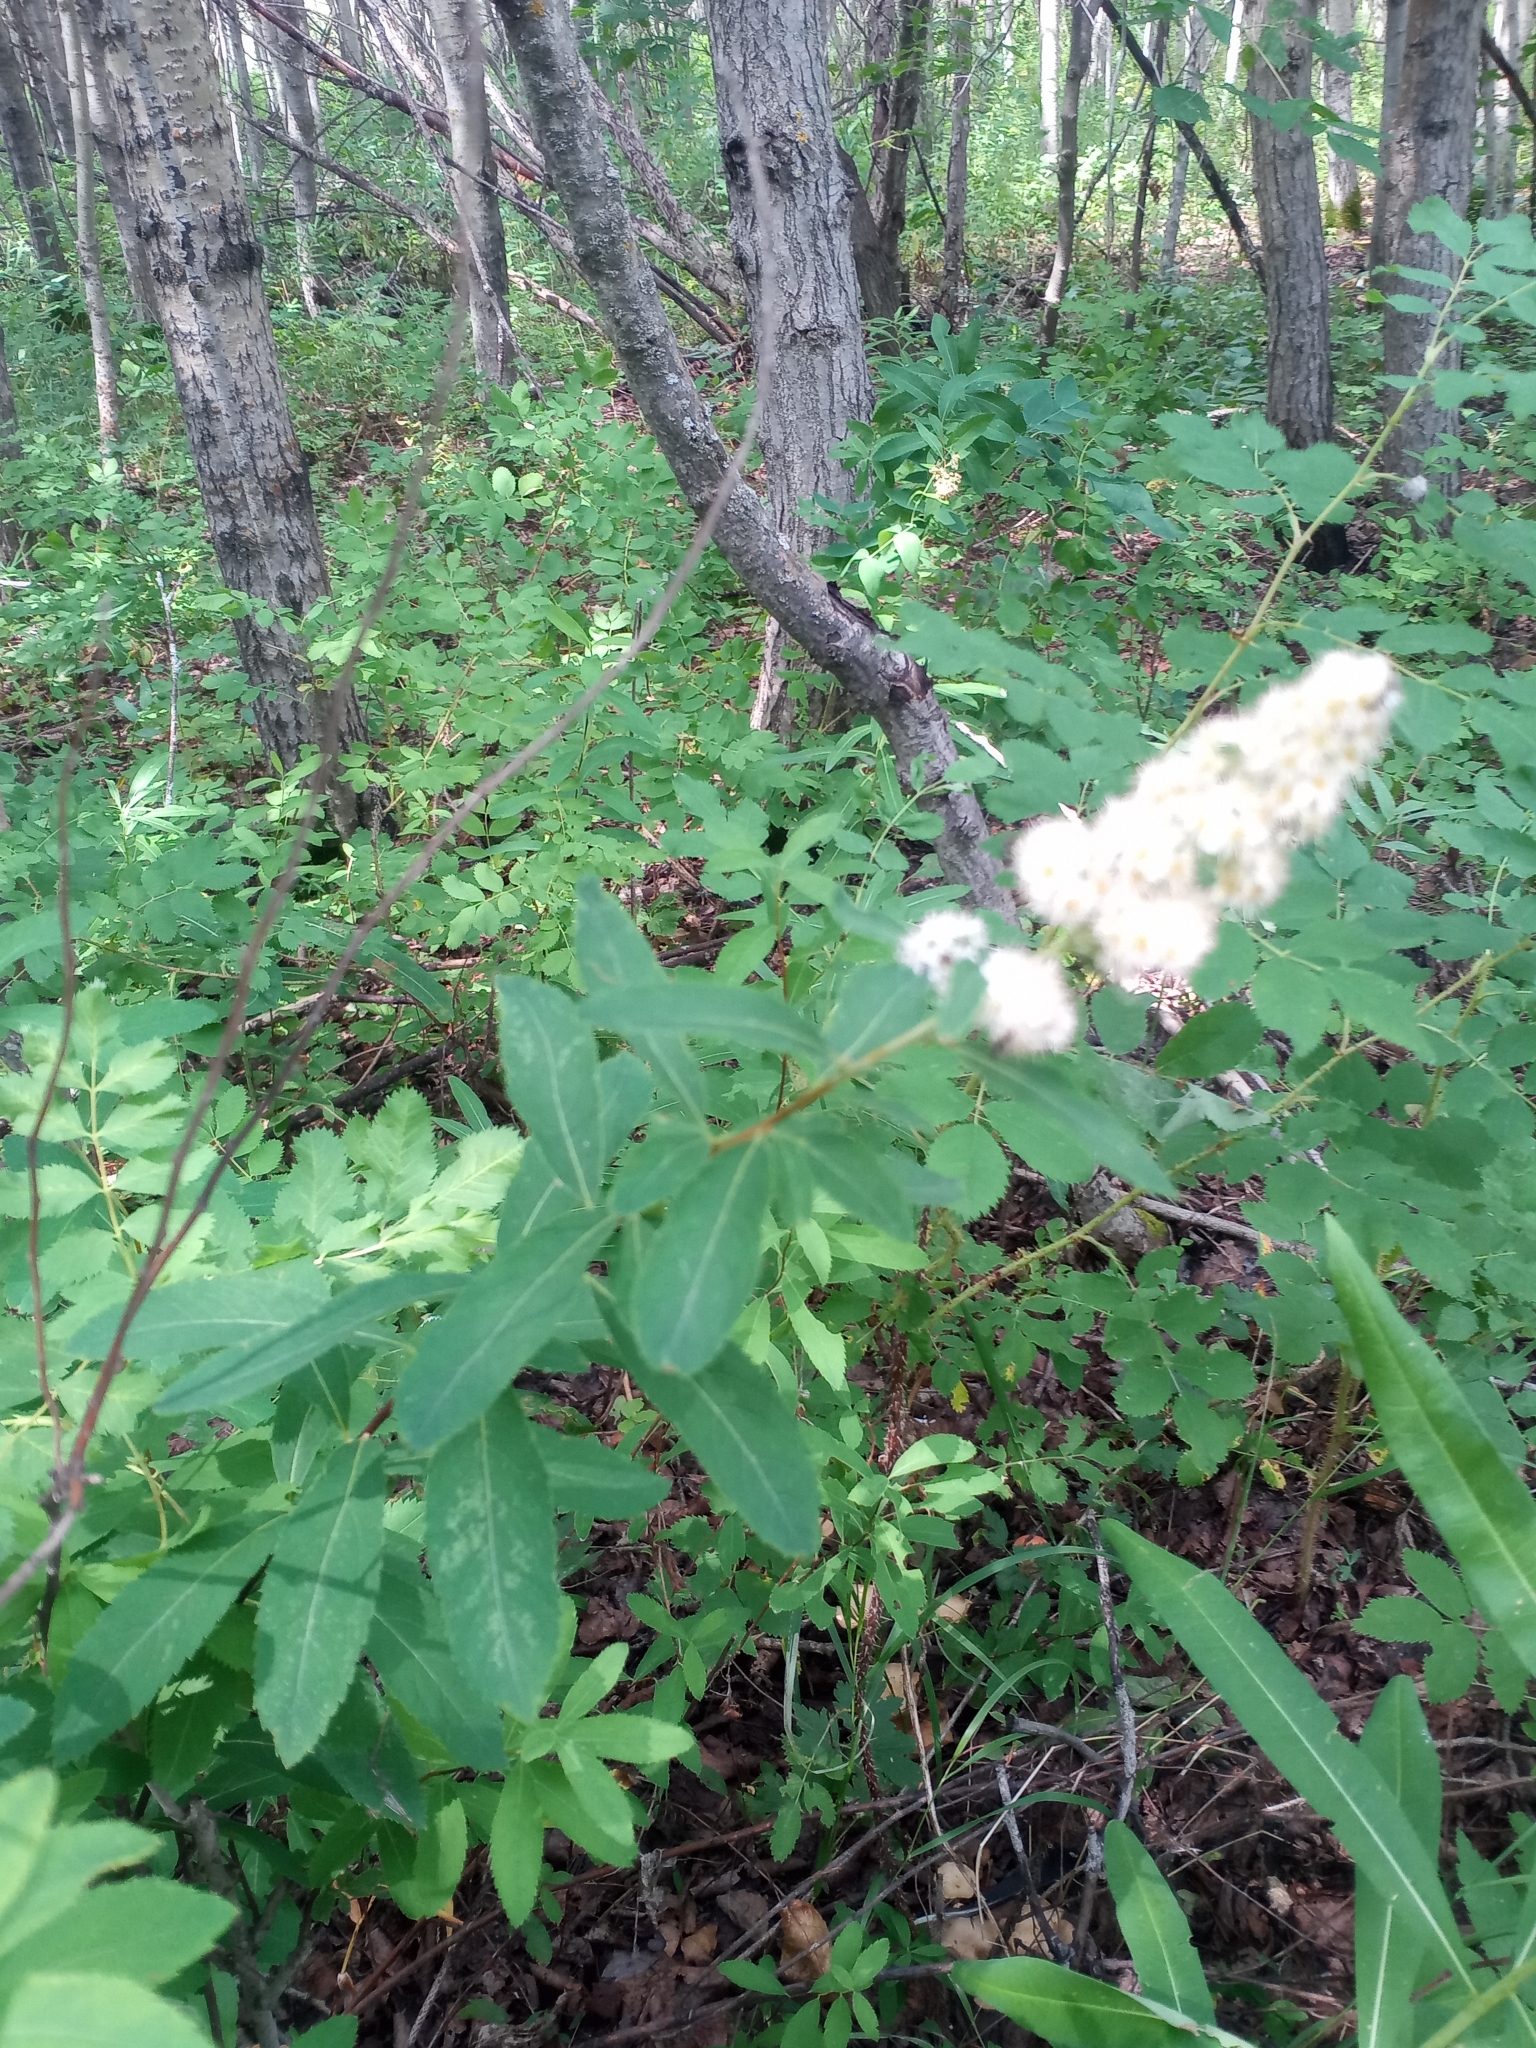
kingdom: Plantae
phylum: Tracheophyta
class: Magnoliopsida
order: Rosales
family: Rosaceae
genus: Spiraea
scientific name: Spiraea alba
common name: Pale bridewort
